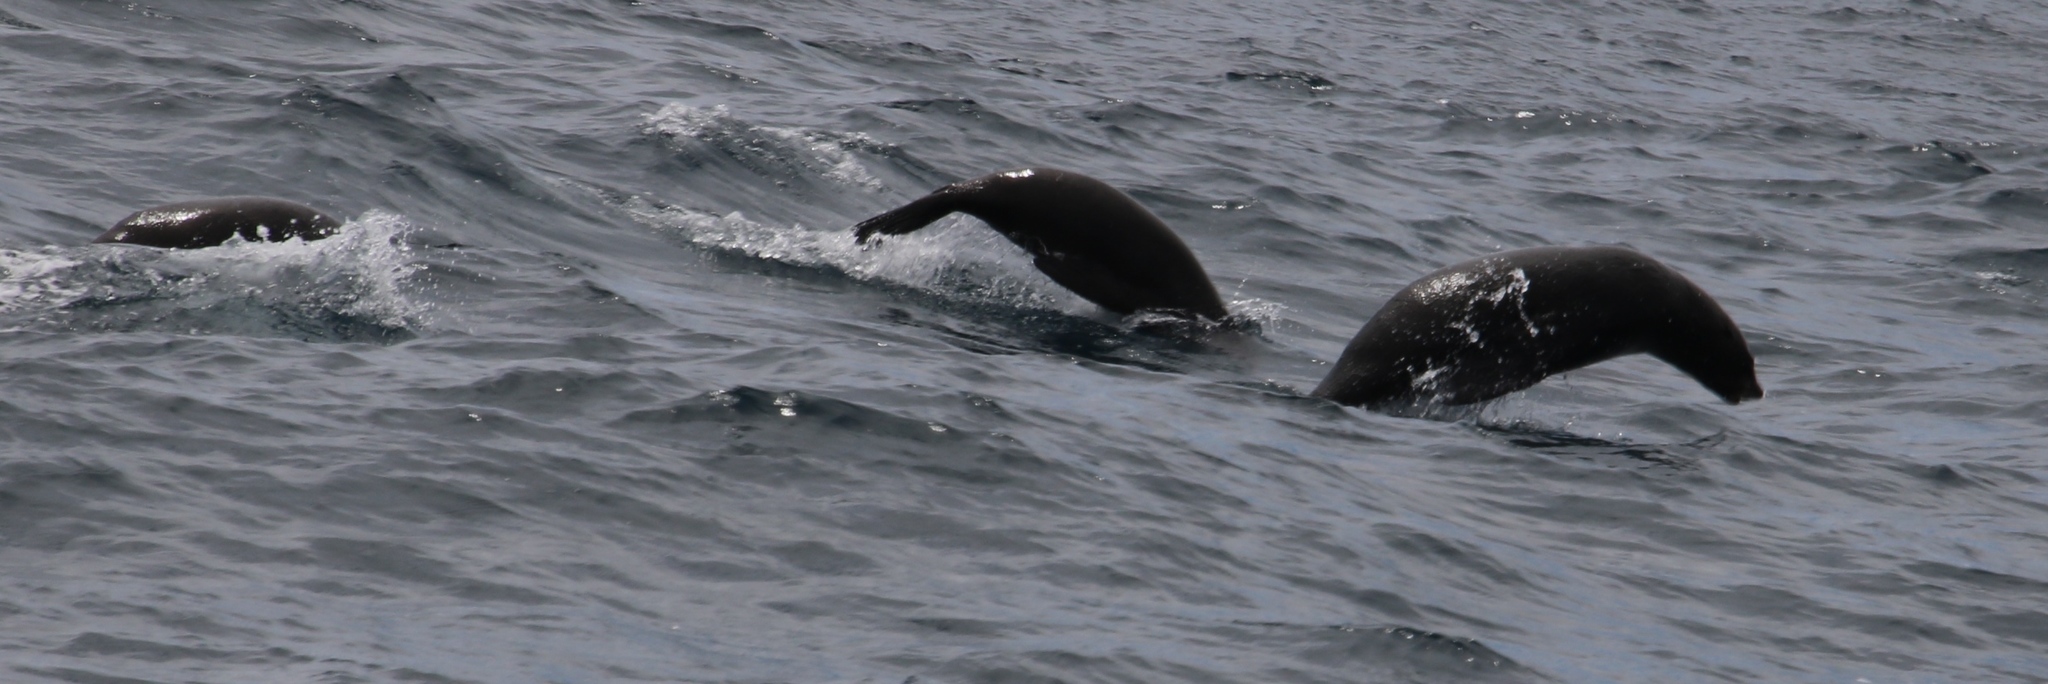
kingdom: Animalia
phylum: Chordata
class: Mammalia
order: Carnivora
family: Otariidae
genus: Arctocephalus
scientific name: Arctocephalus pusillus
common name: Brown fur seal
